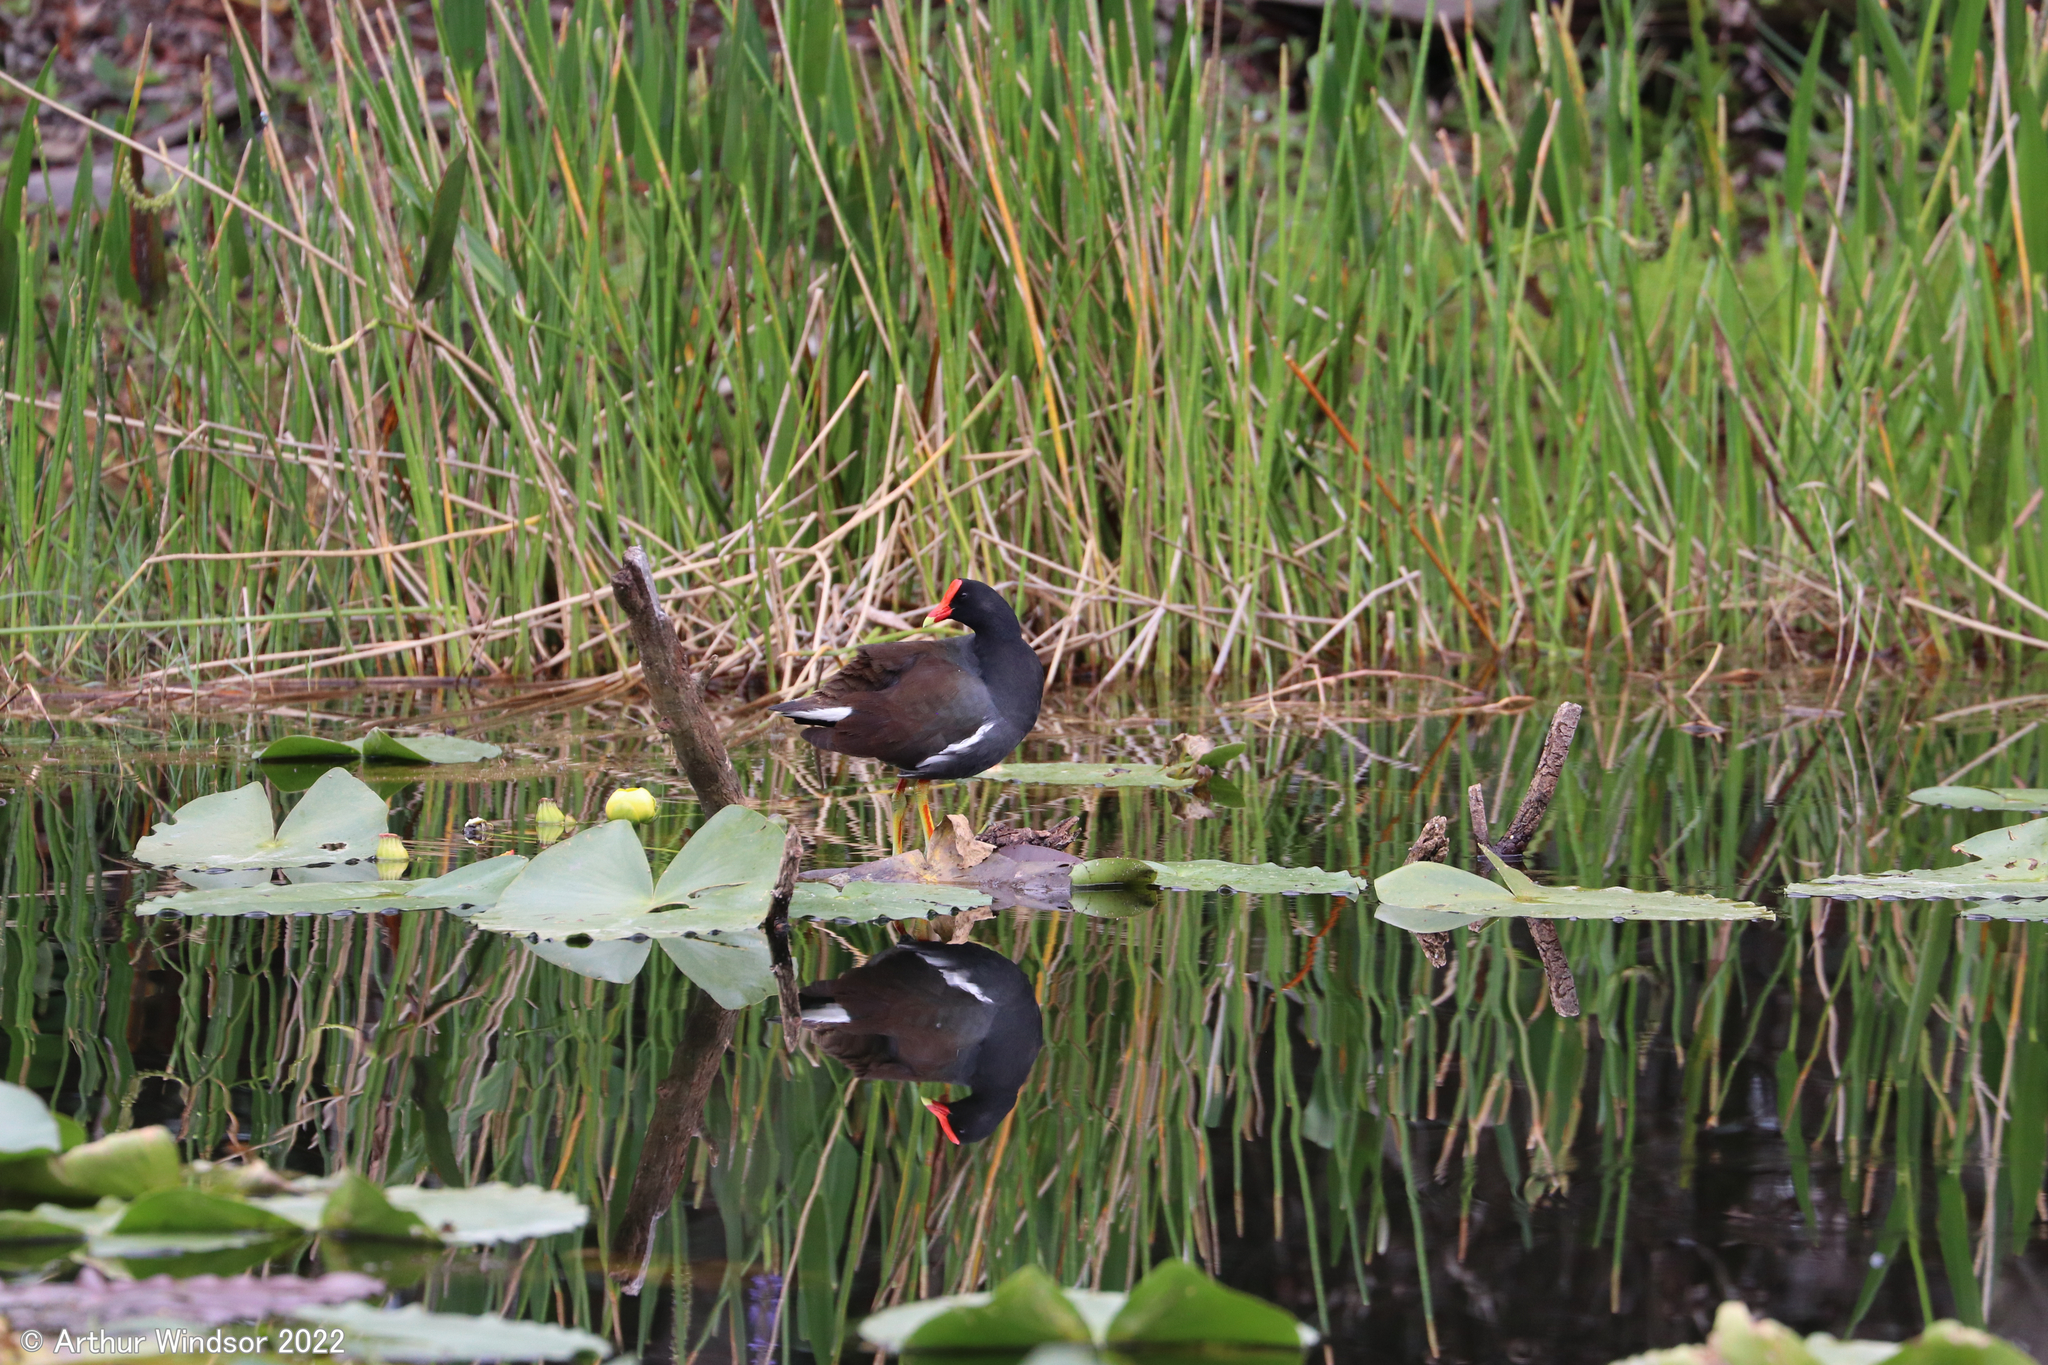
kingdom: Animalia
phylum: Chordata
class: Aves
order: Gruiformes
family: Rallidae
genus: Gallinula
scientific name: Gallinula chloropus
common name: Common moorhen
